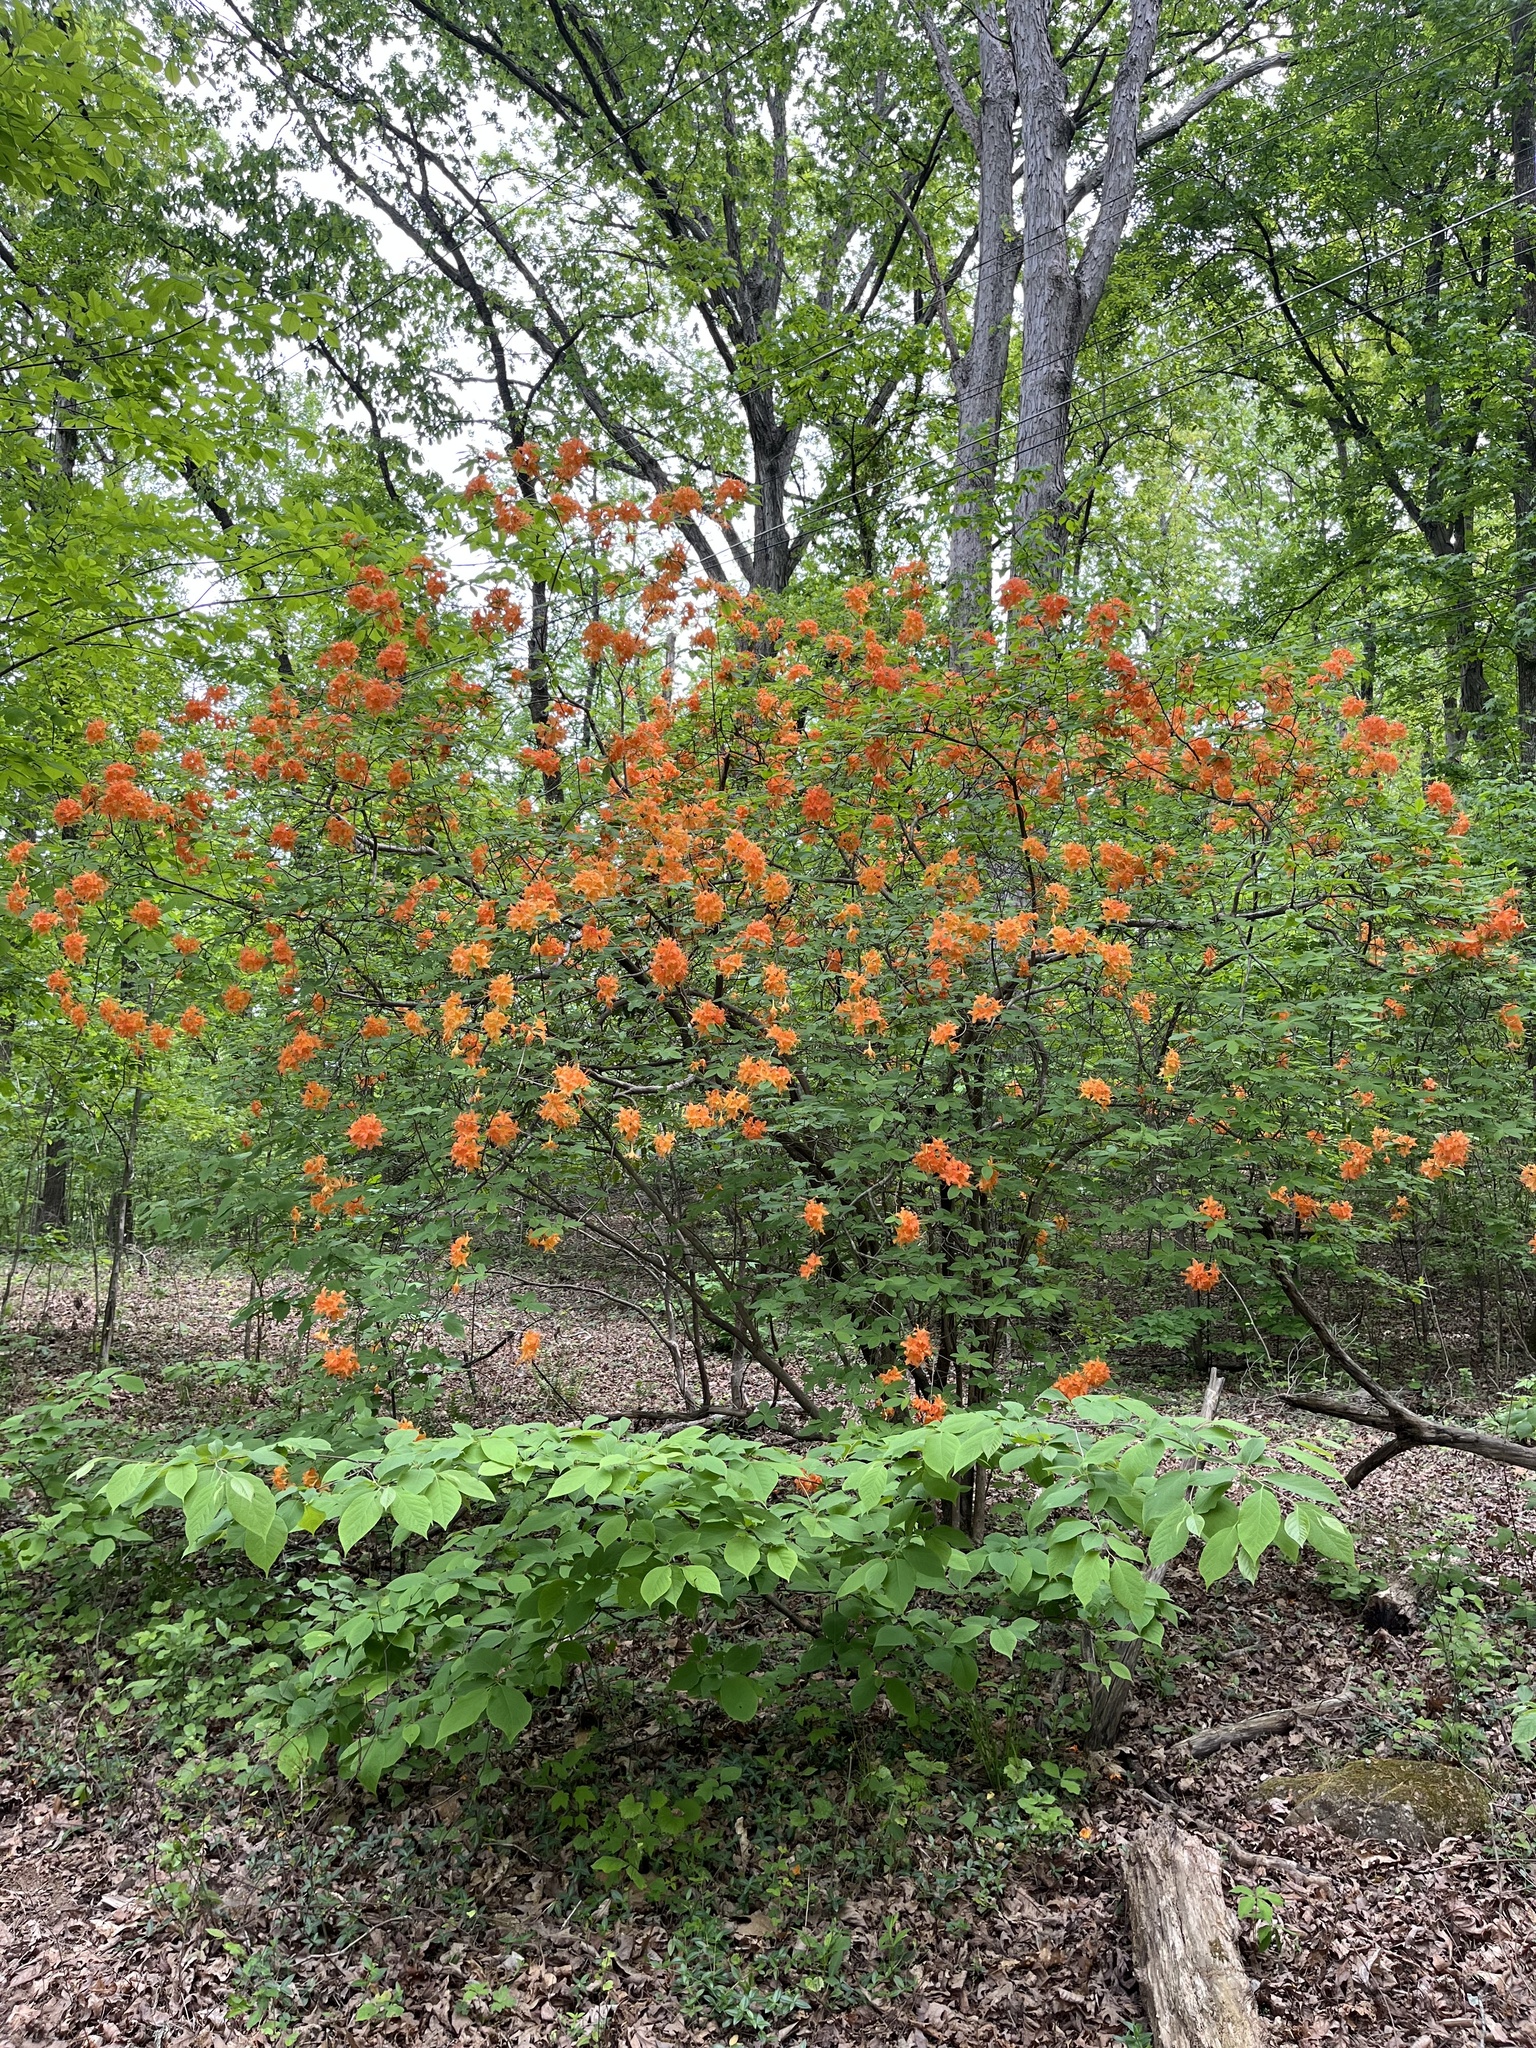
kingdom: Plantae
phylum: Tracheophyta
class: Magnoliopsida
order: Ericales
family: Ericaceae
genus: Rhododendron
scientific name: Rhododendron calendulaceum
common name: Flame azalea
